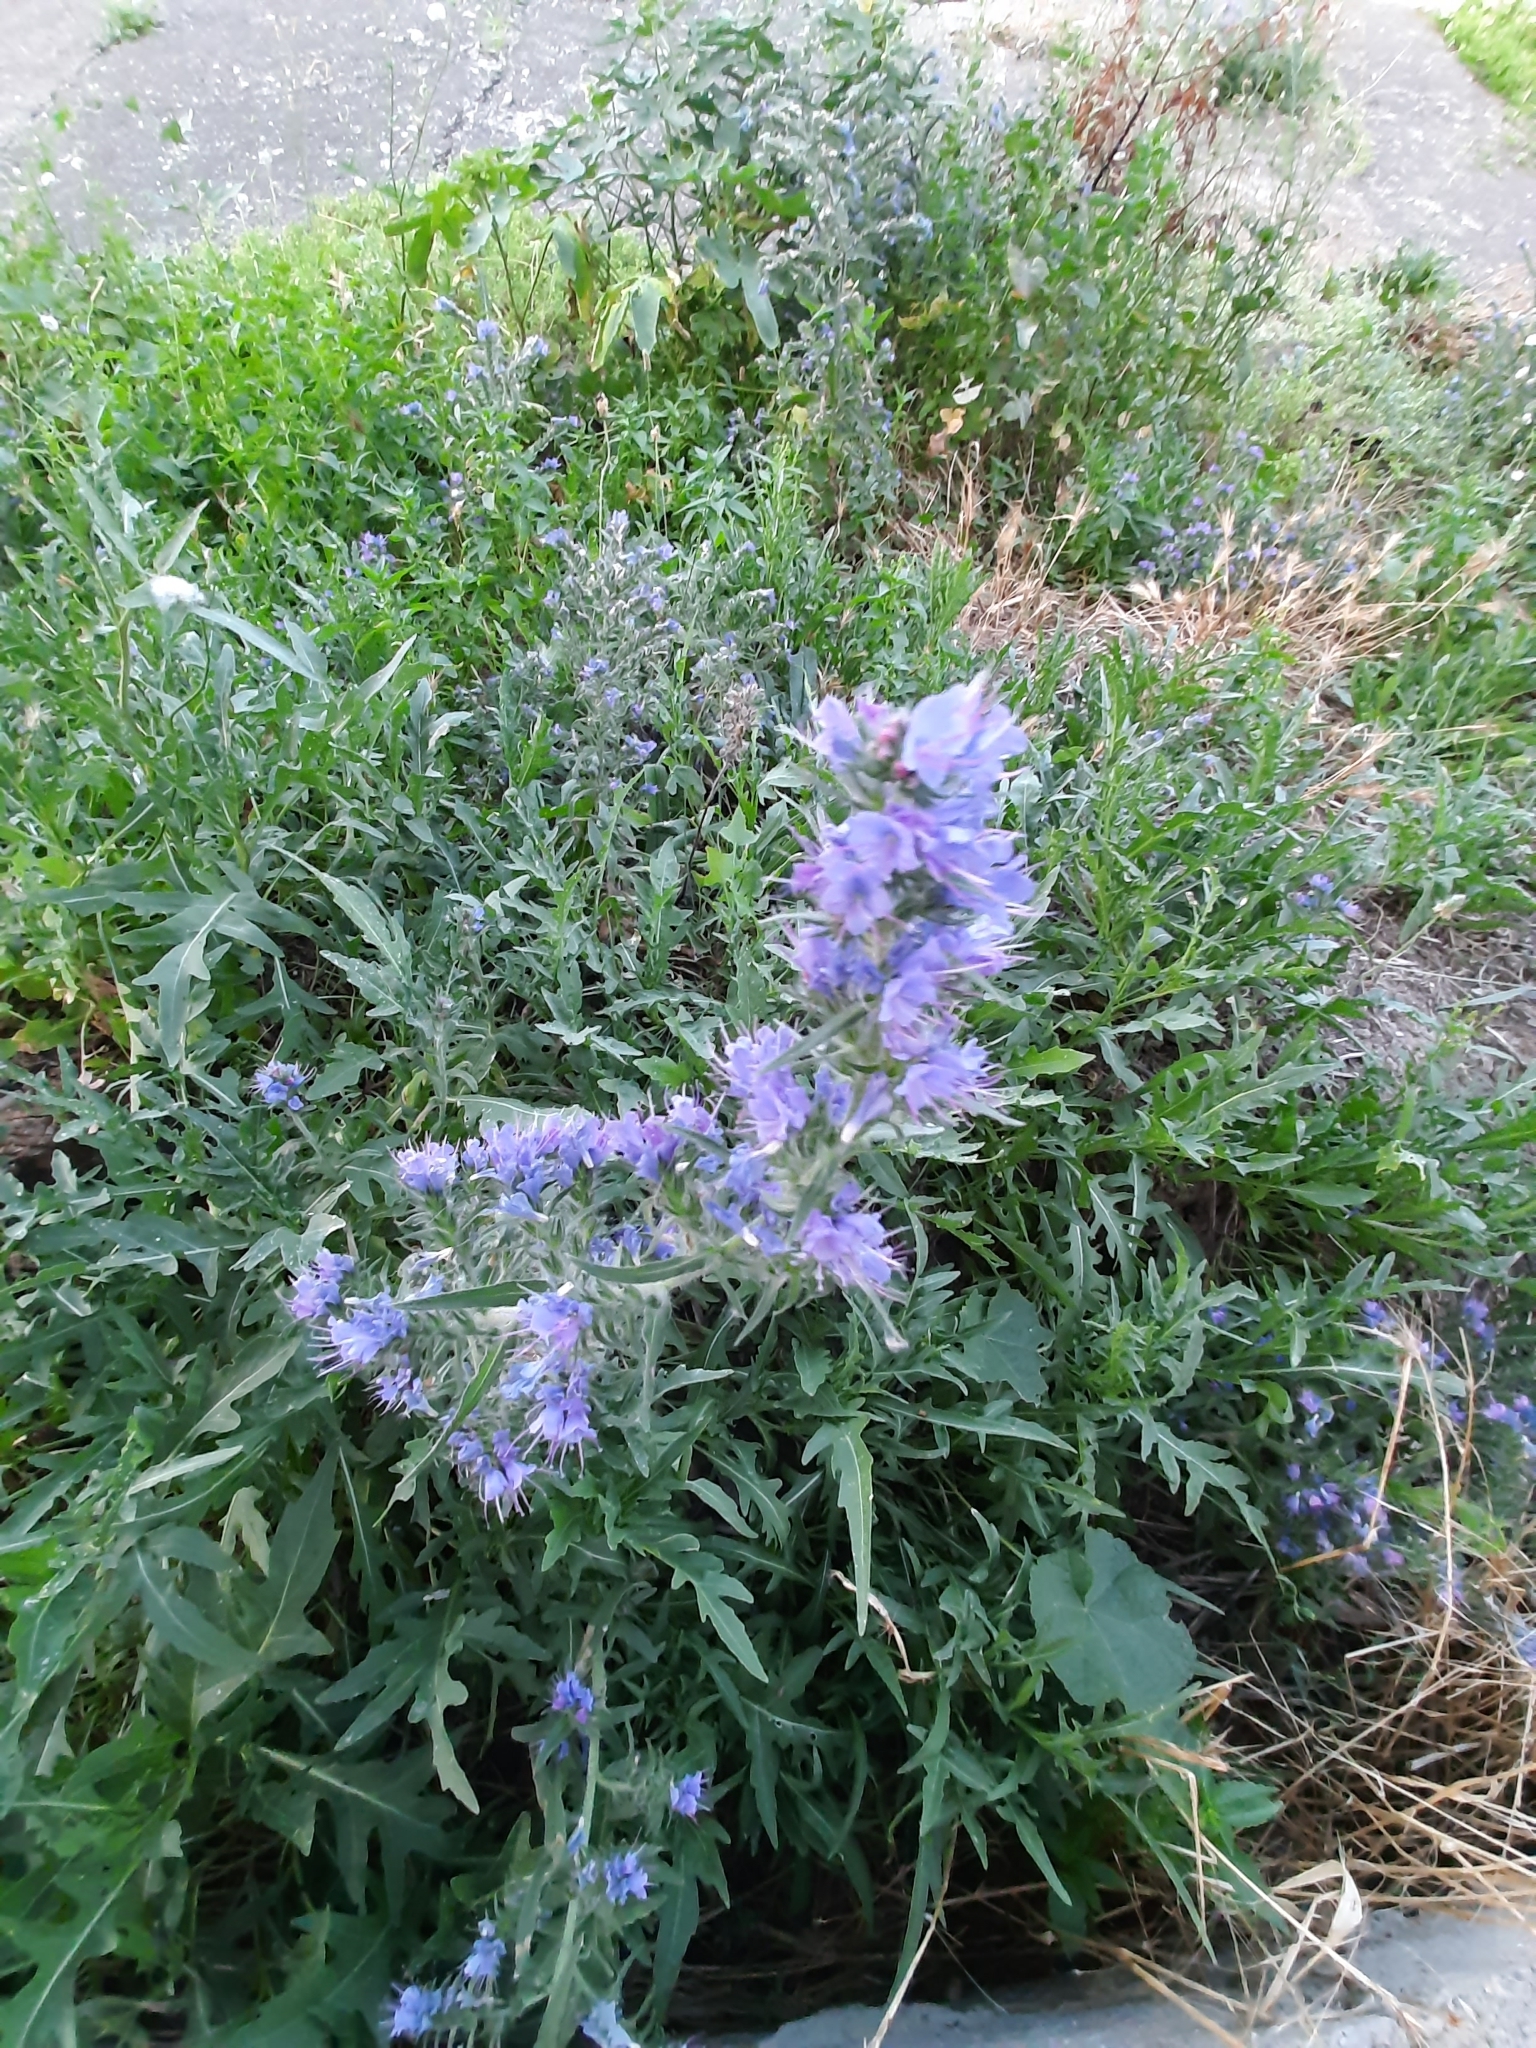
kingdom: Plantae
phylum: Tracheophyta
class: Magnoliopsida
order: Boraginales
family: Boraginaceae
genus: Echium
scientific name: Echium vulgare
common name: Common viper's bugloss
